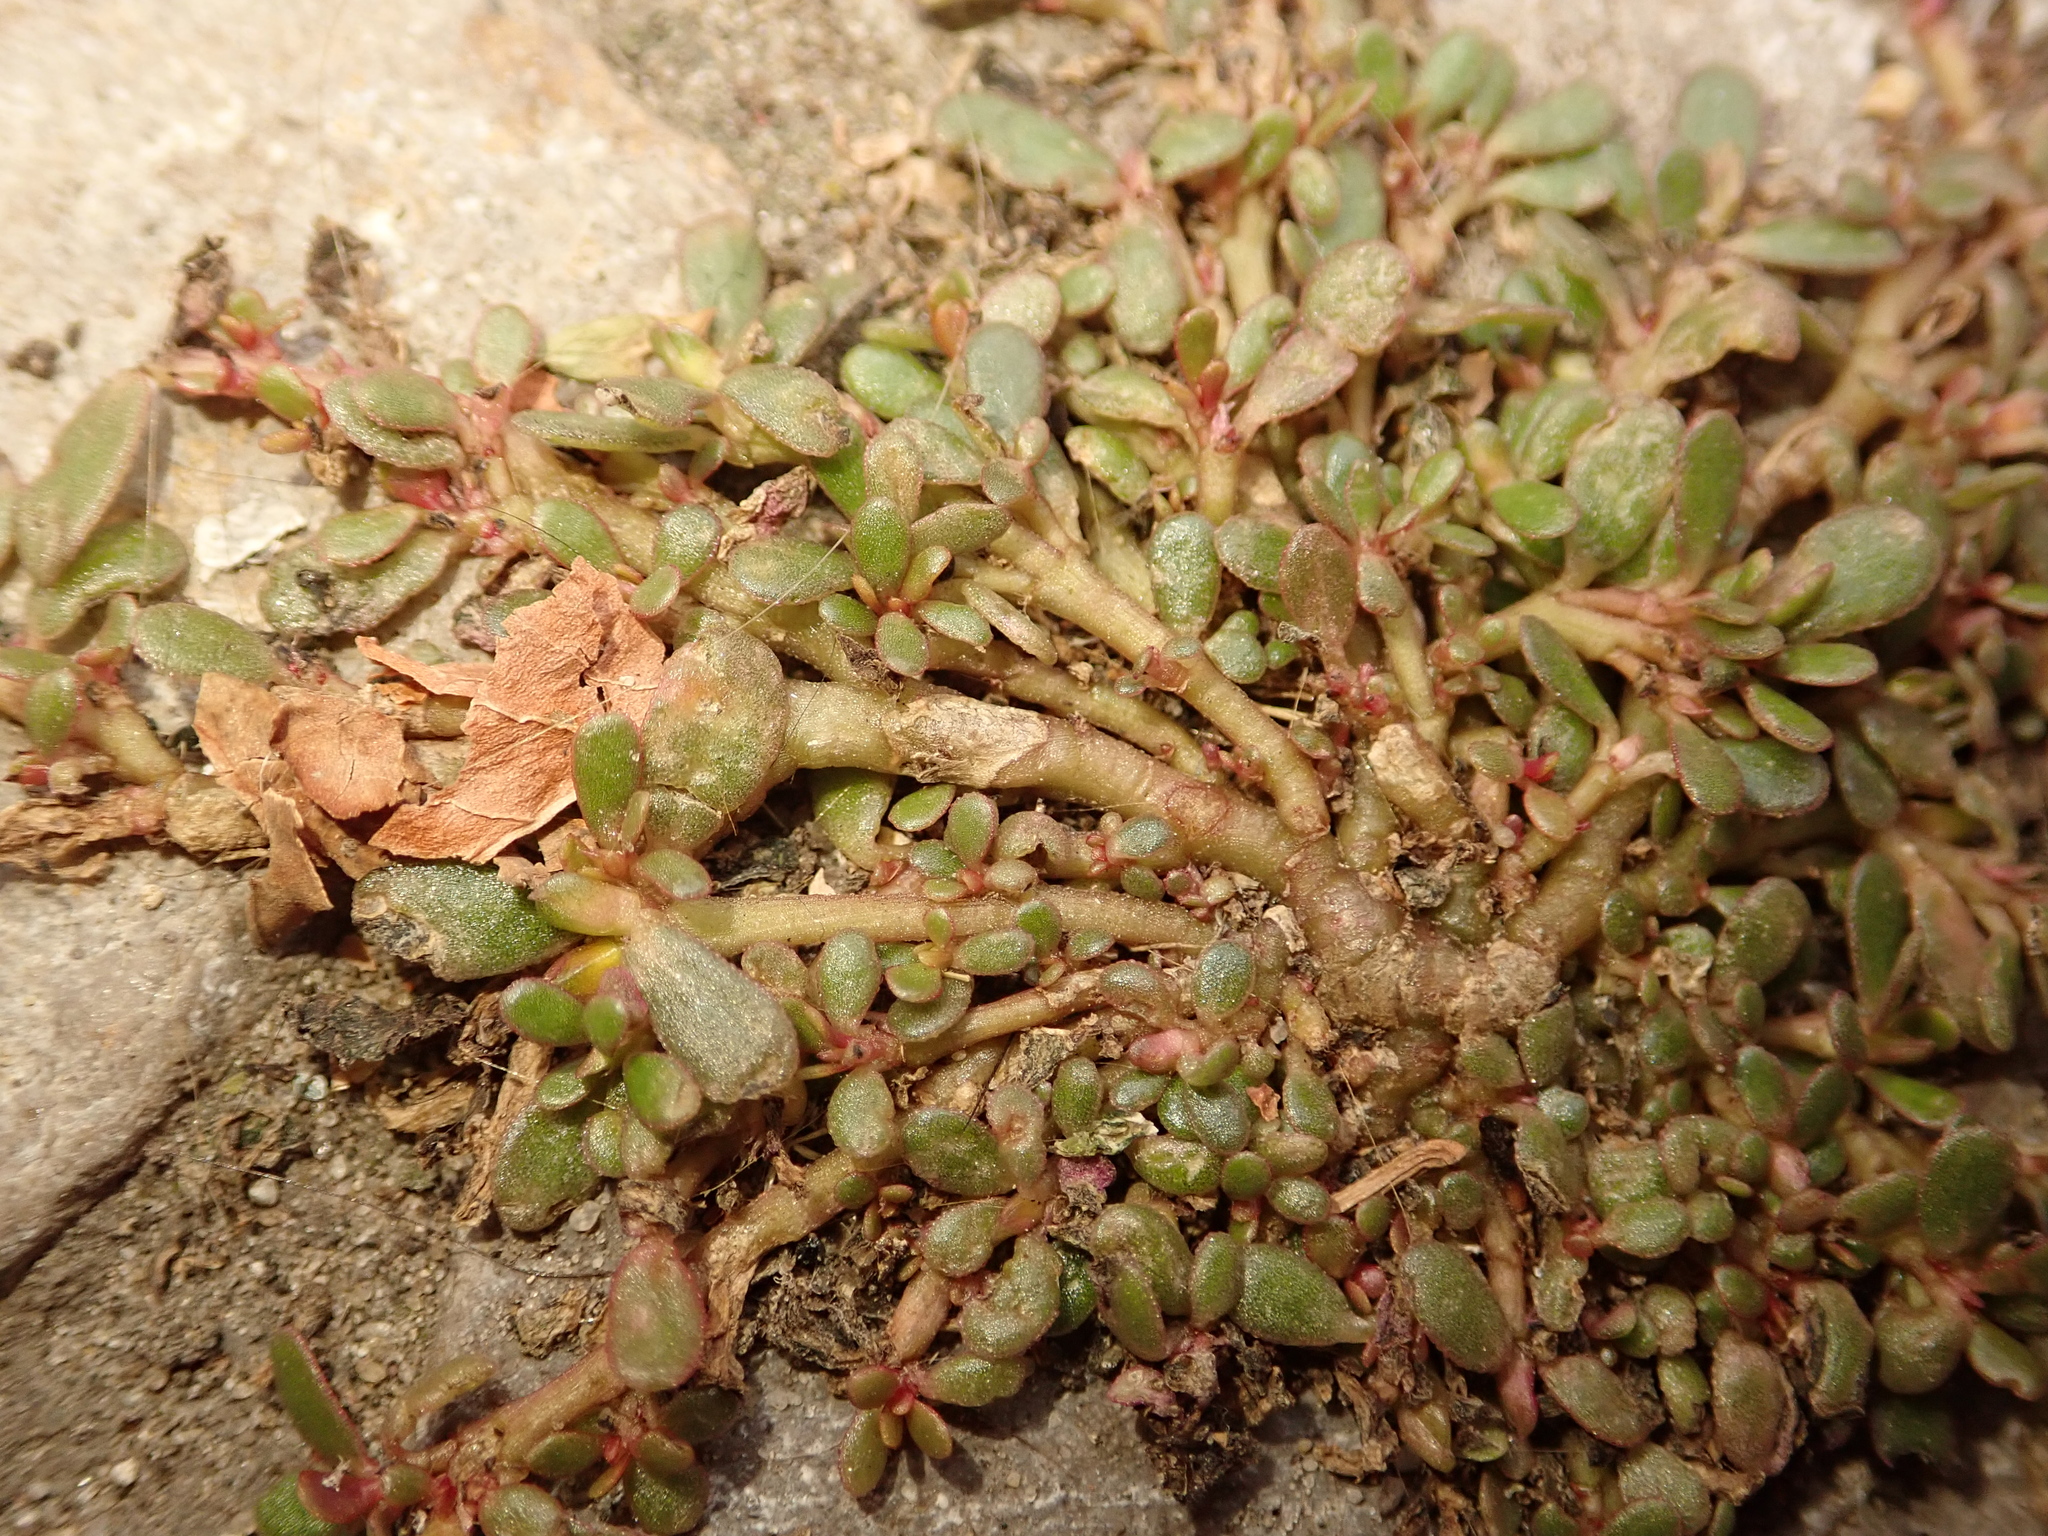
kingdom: Plantae
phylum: Tracheophyta
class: Magnoliopsida
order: Caryophyllales
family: Portulacaceae
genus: Portulaca
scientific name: Portulaca oleracea
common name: Common purslane
